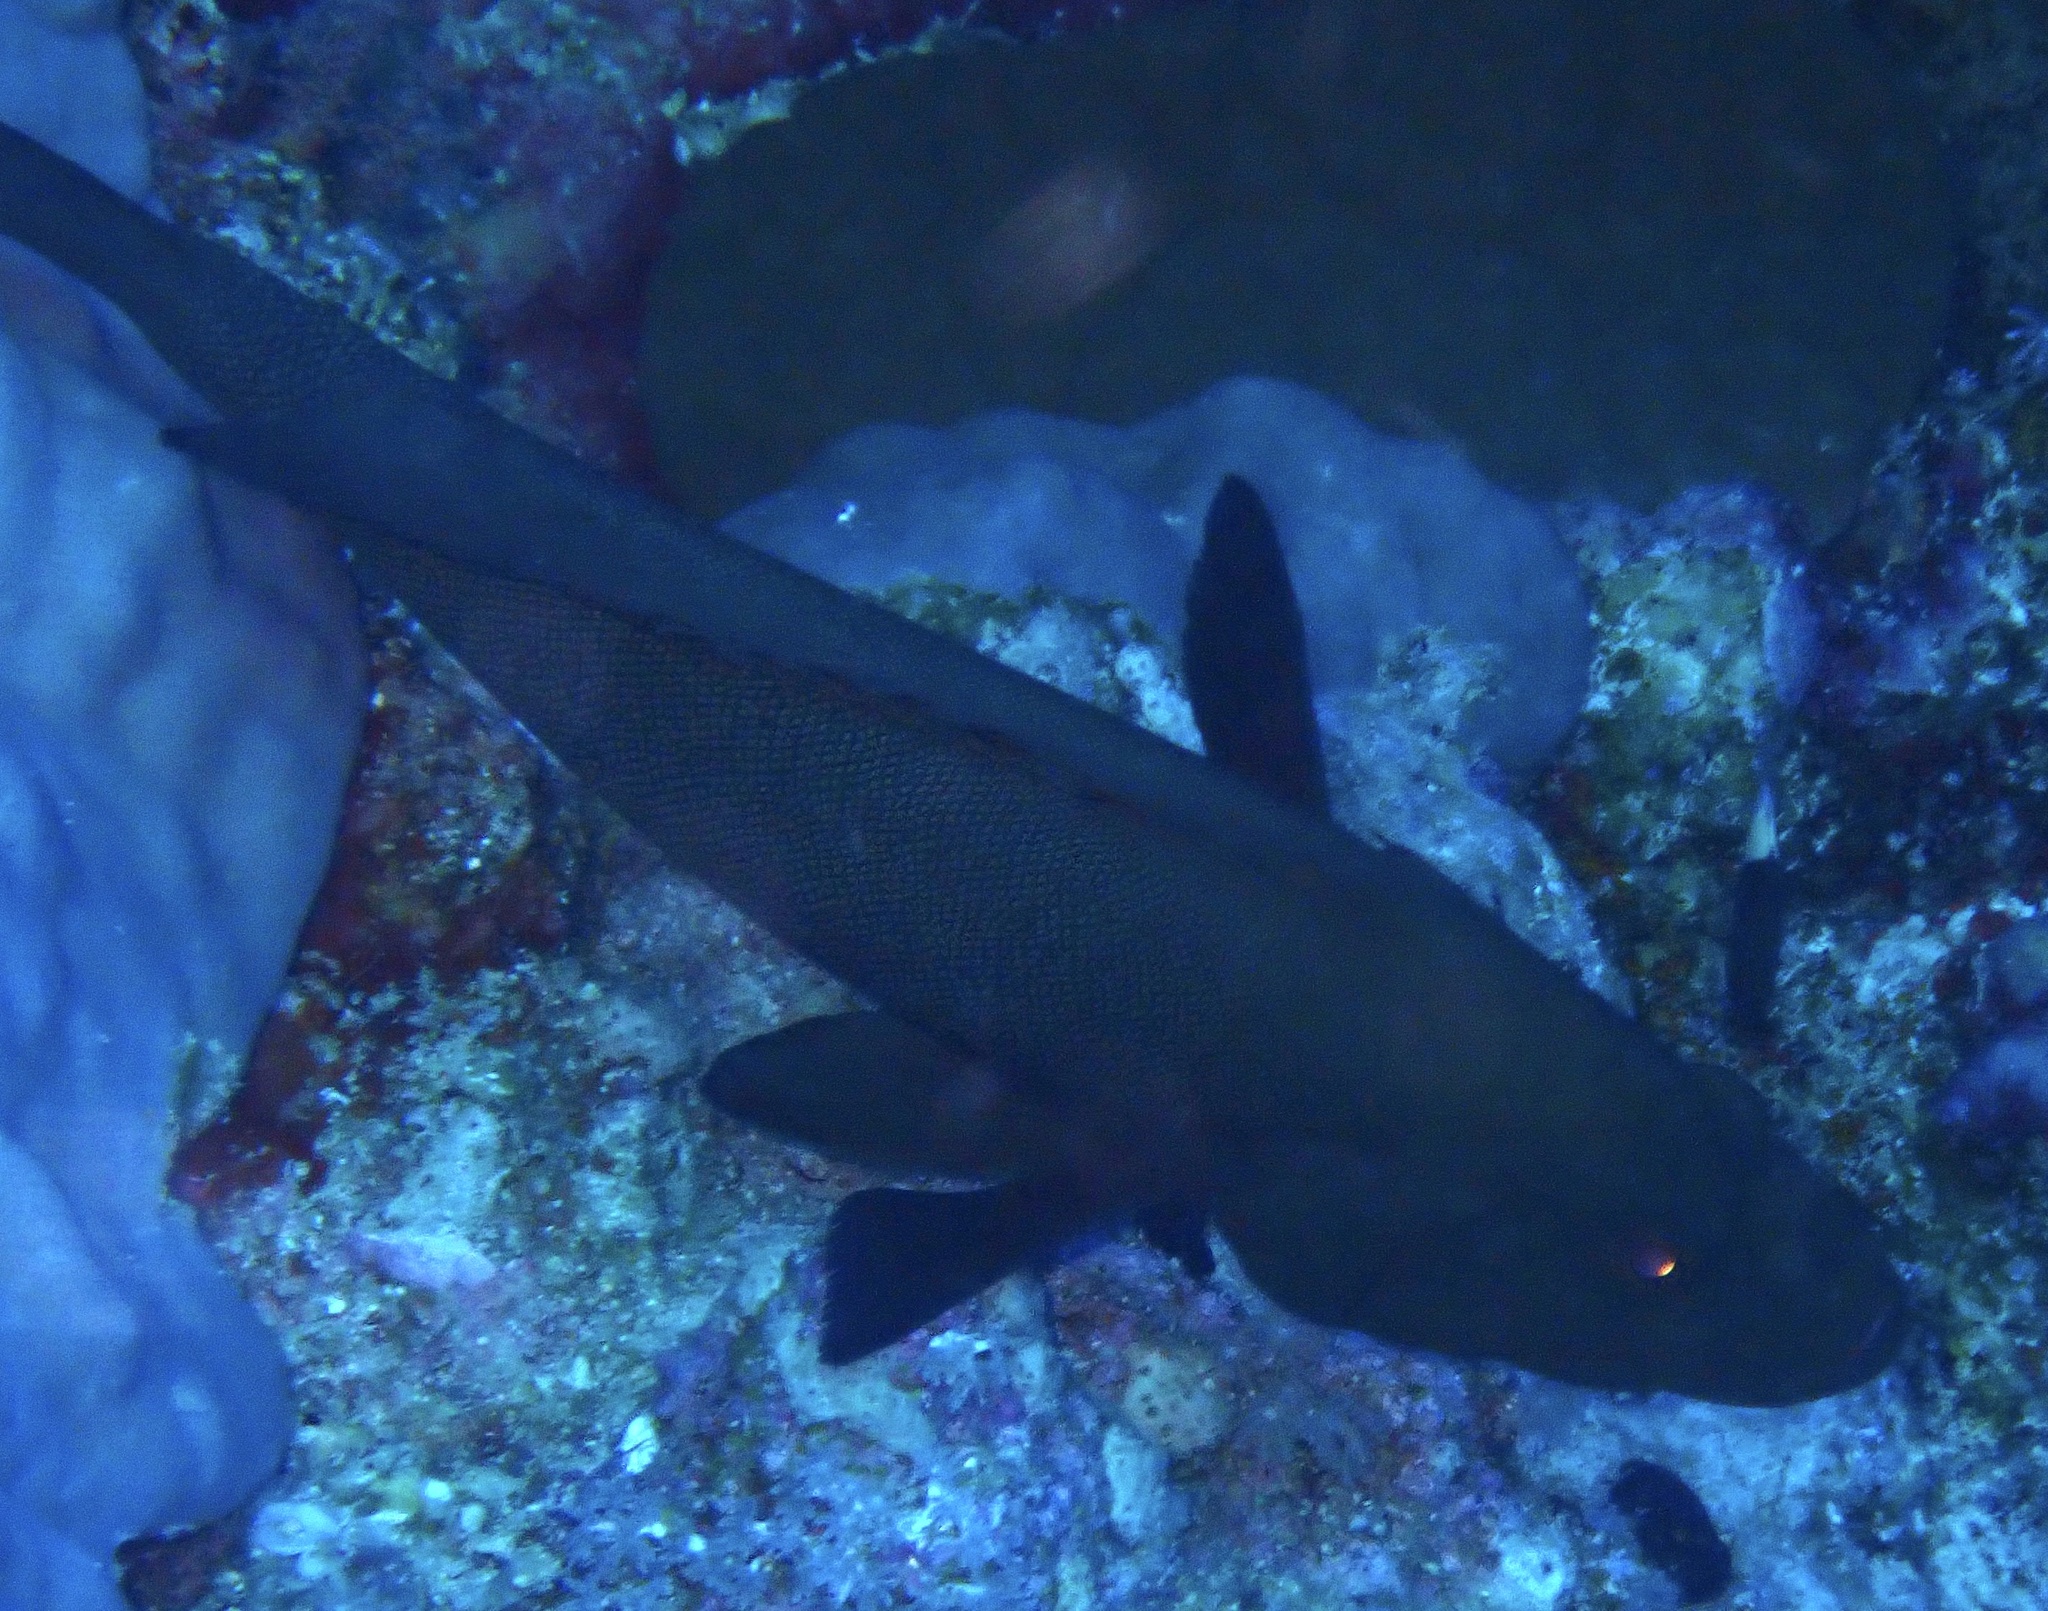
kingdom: Animalia
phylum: Chordata
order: Perciformes
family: Serranidae
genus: Aethaloperca
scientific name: Aethaloperca rogaa
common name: Redmouth grouper
